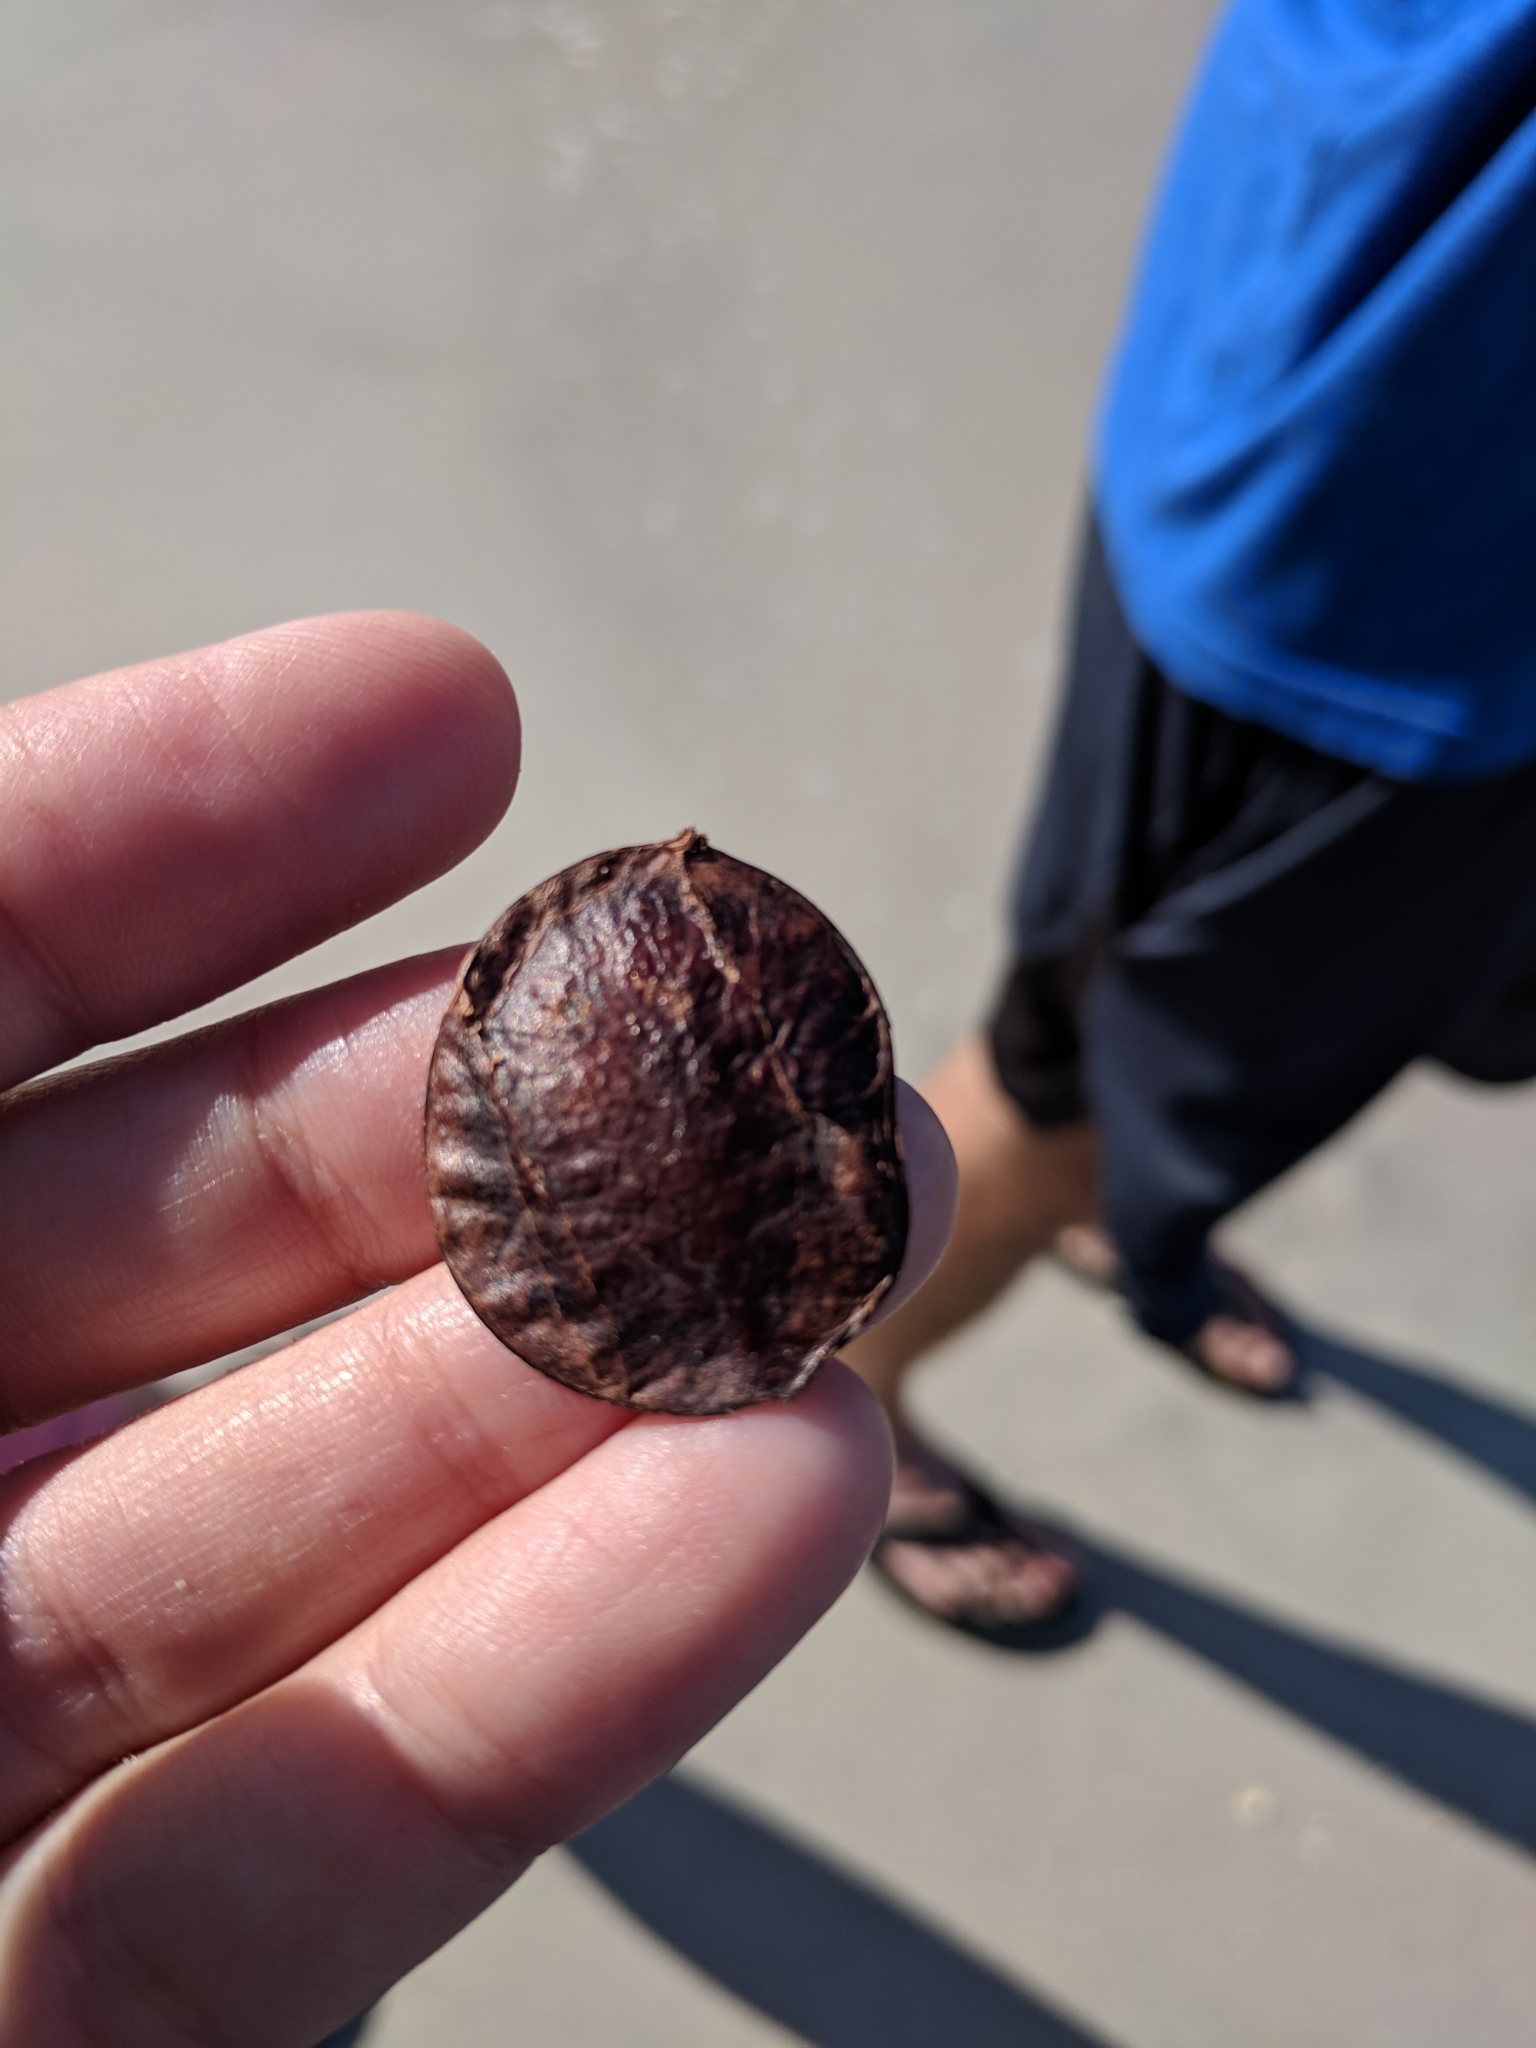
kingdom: Plantae
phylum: Tracheophyta
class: Magnoliopsida
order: Fabales
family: Fabaceae
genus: Dalbergia
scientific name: Dalbergia ecastaphyllum
